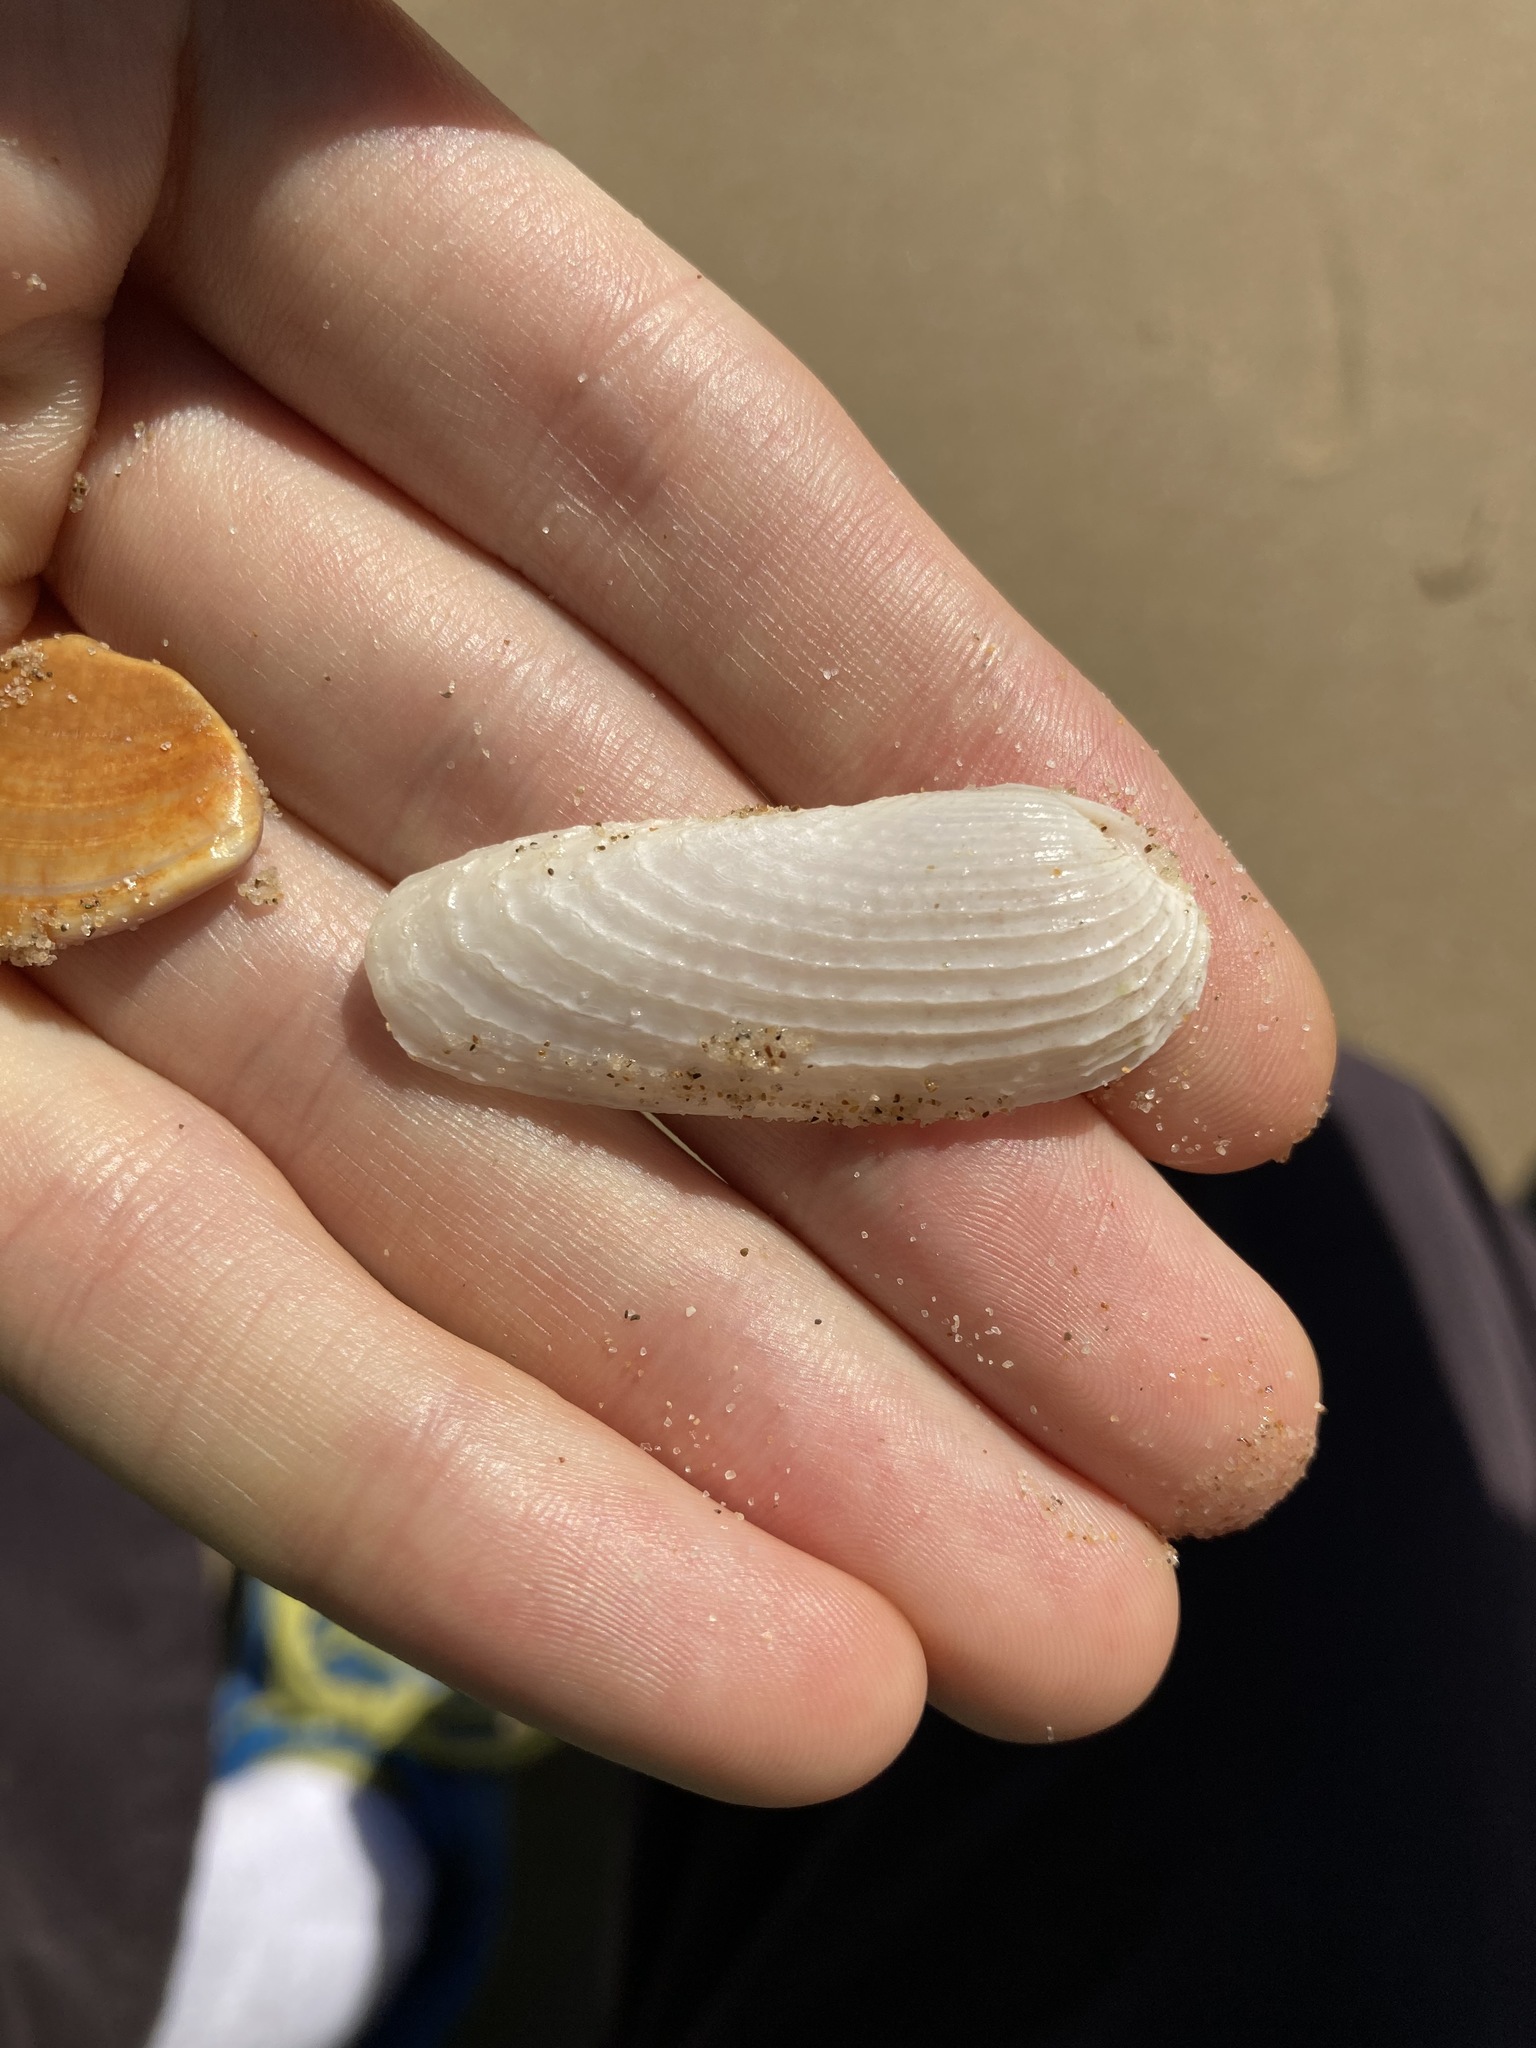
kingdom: Animalia
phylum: Mollusca
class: Bivalvia
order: Myida
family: Pholadidae
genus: Barnea
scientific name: Barnea australasiae
